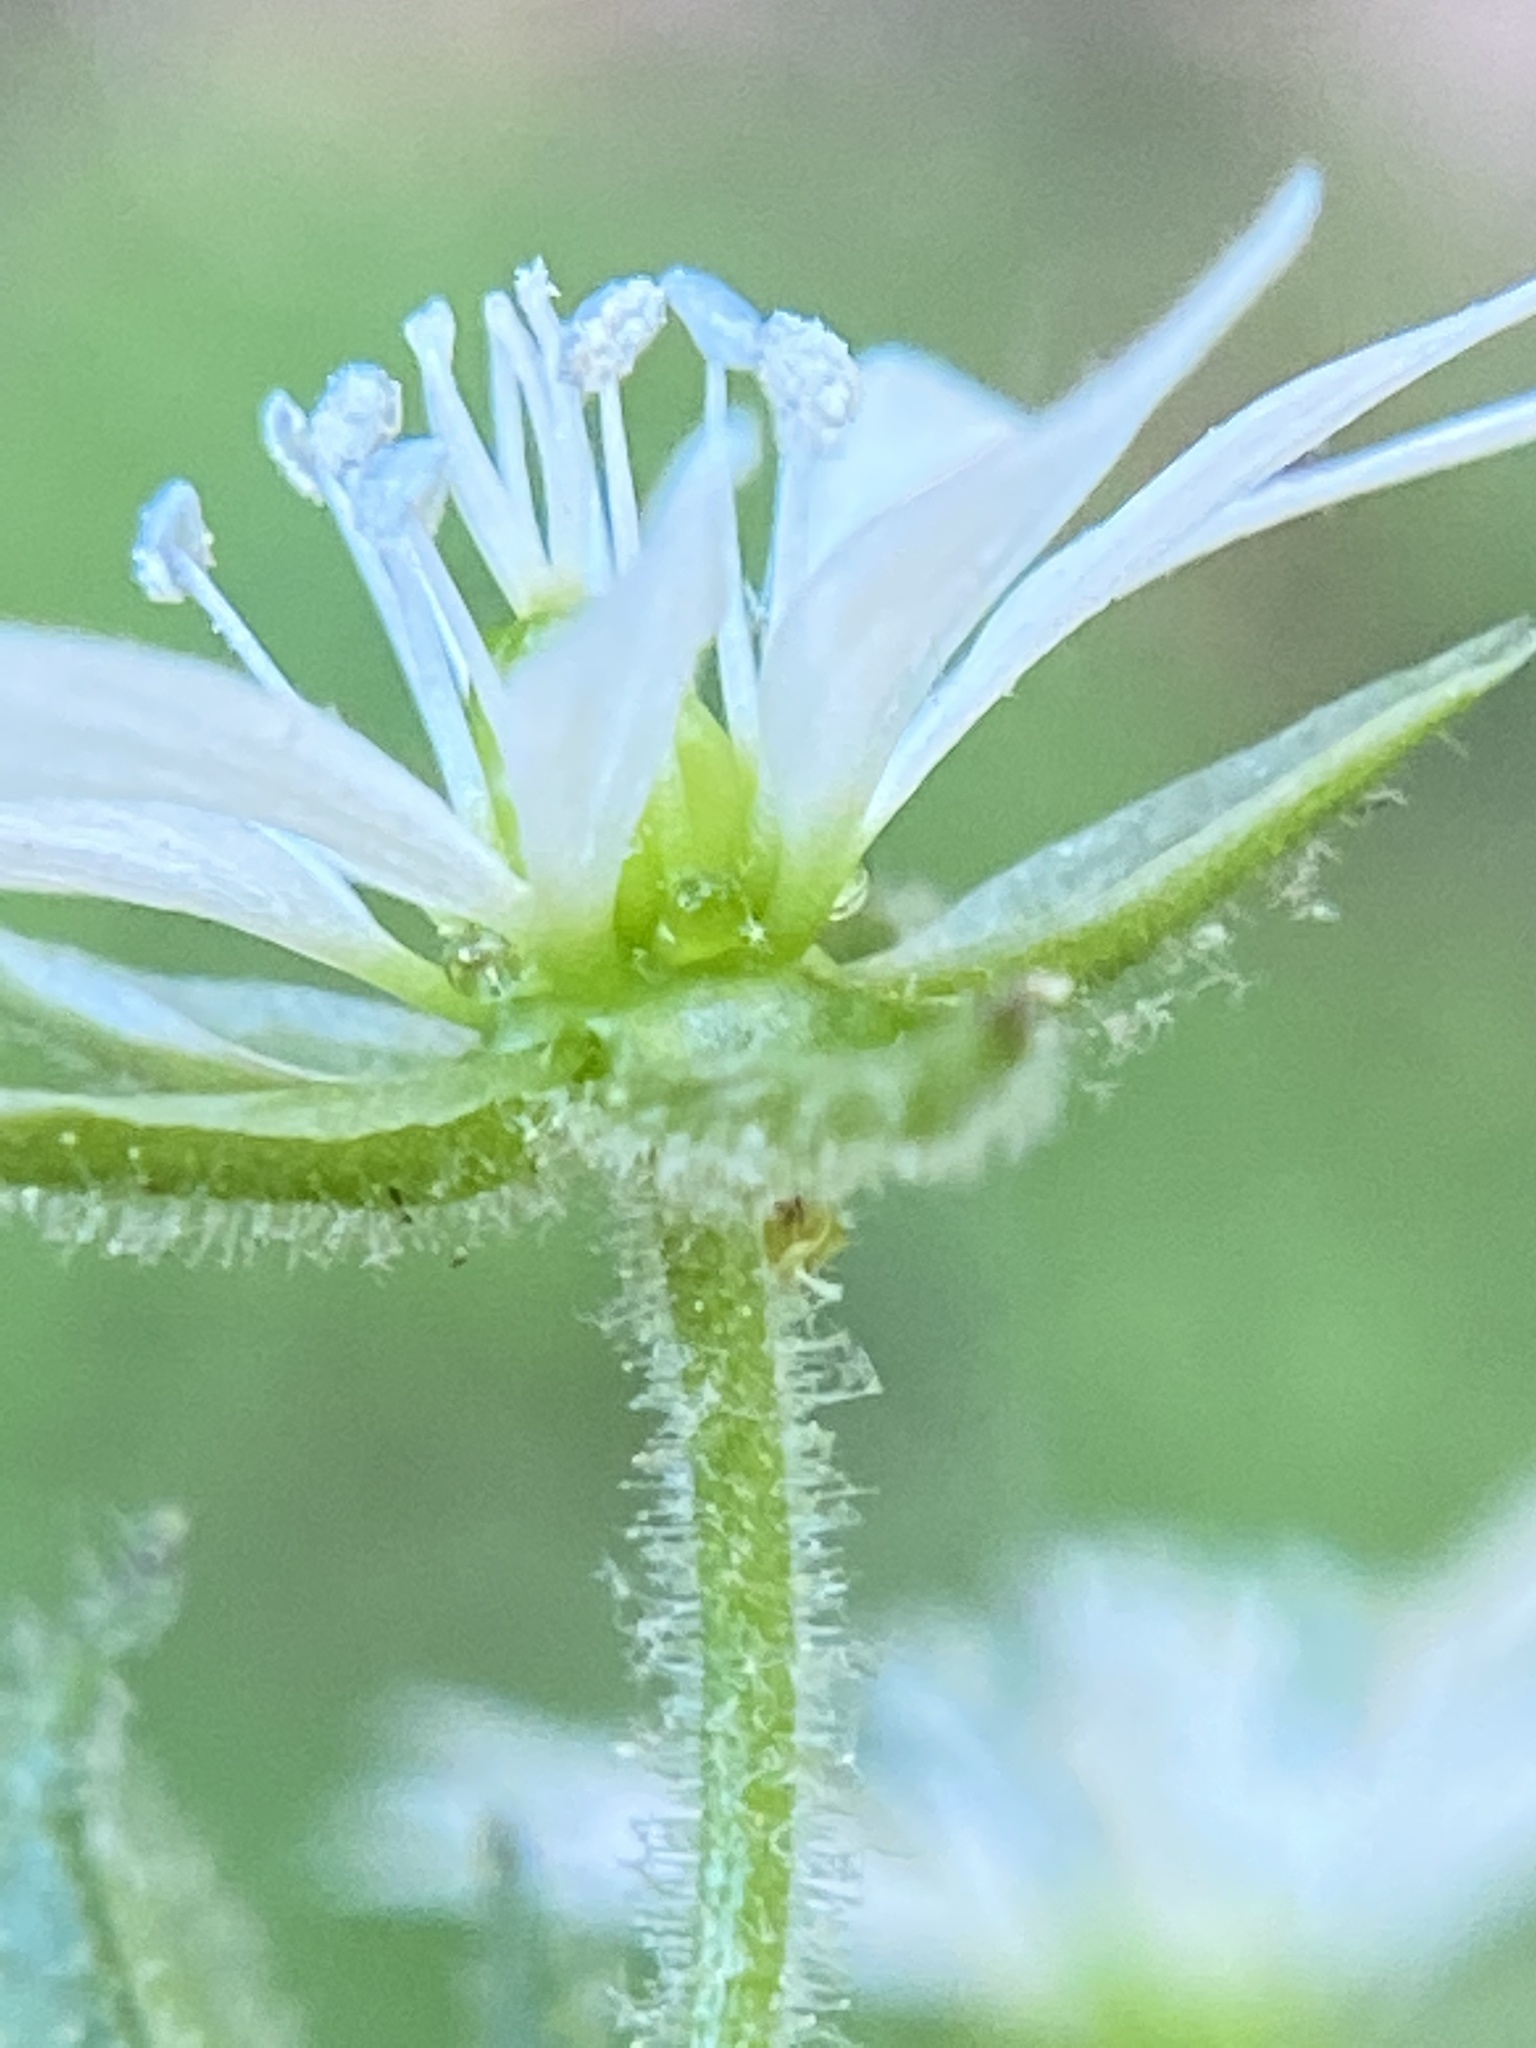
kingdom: Plantae
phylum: Tracheophyta
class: Magnoliopsida
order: Caryophyllales
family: Caryophyllaceae
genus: Stellaria
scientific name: Stellaria aquatica
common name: Water chickweed
